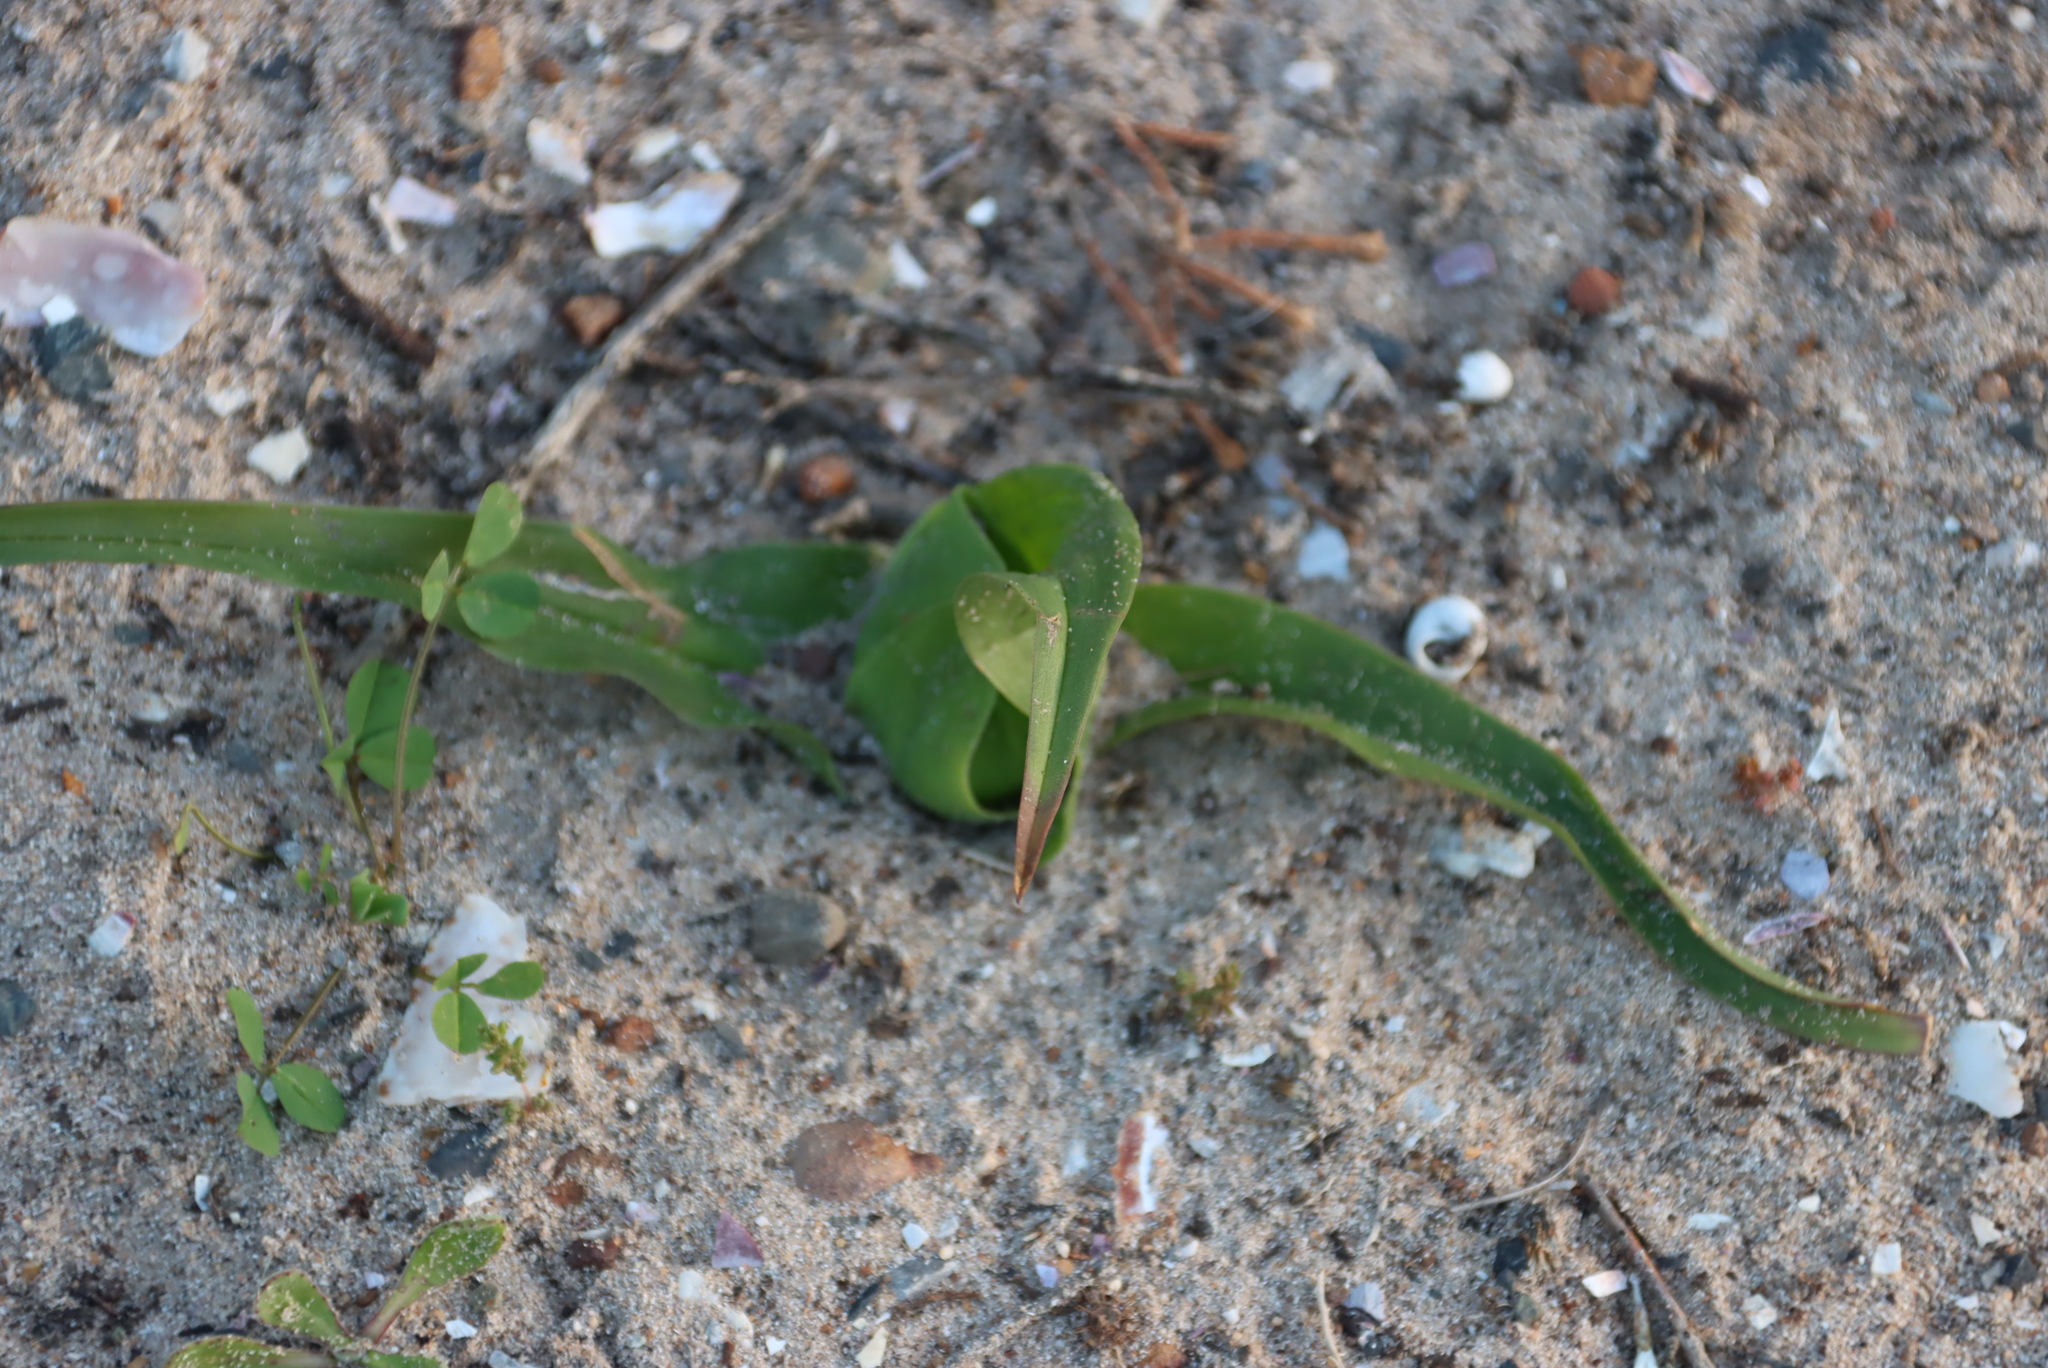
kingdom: Plantae
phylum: Tracheophyta
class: Liliopsida
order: Liliales
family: Colchicaceae
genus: Colchicum
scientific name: Colchicum eucomoides
